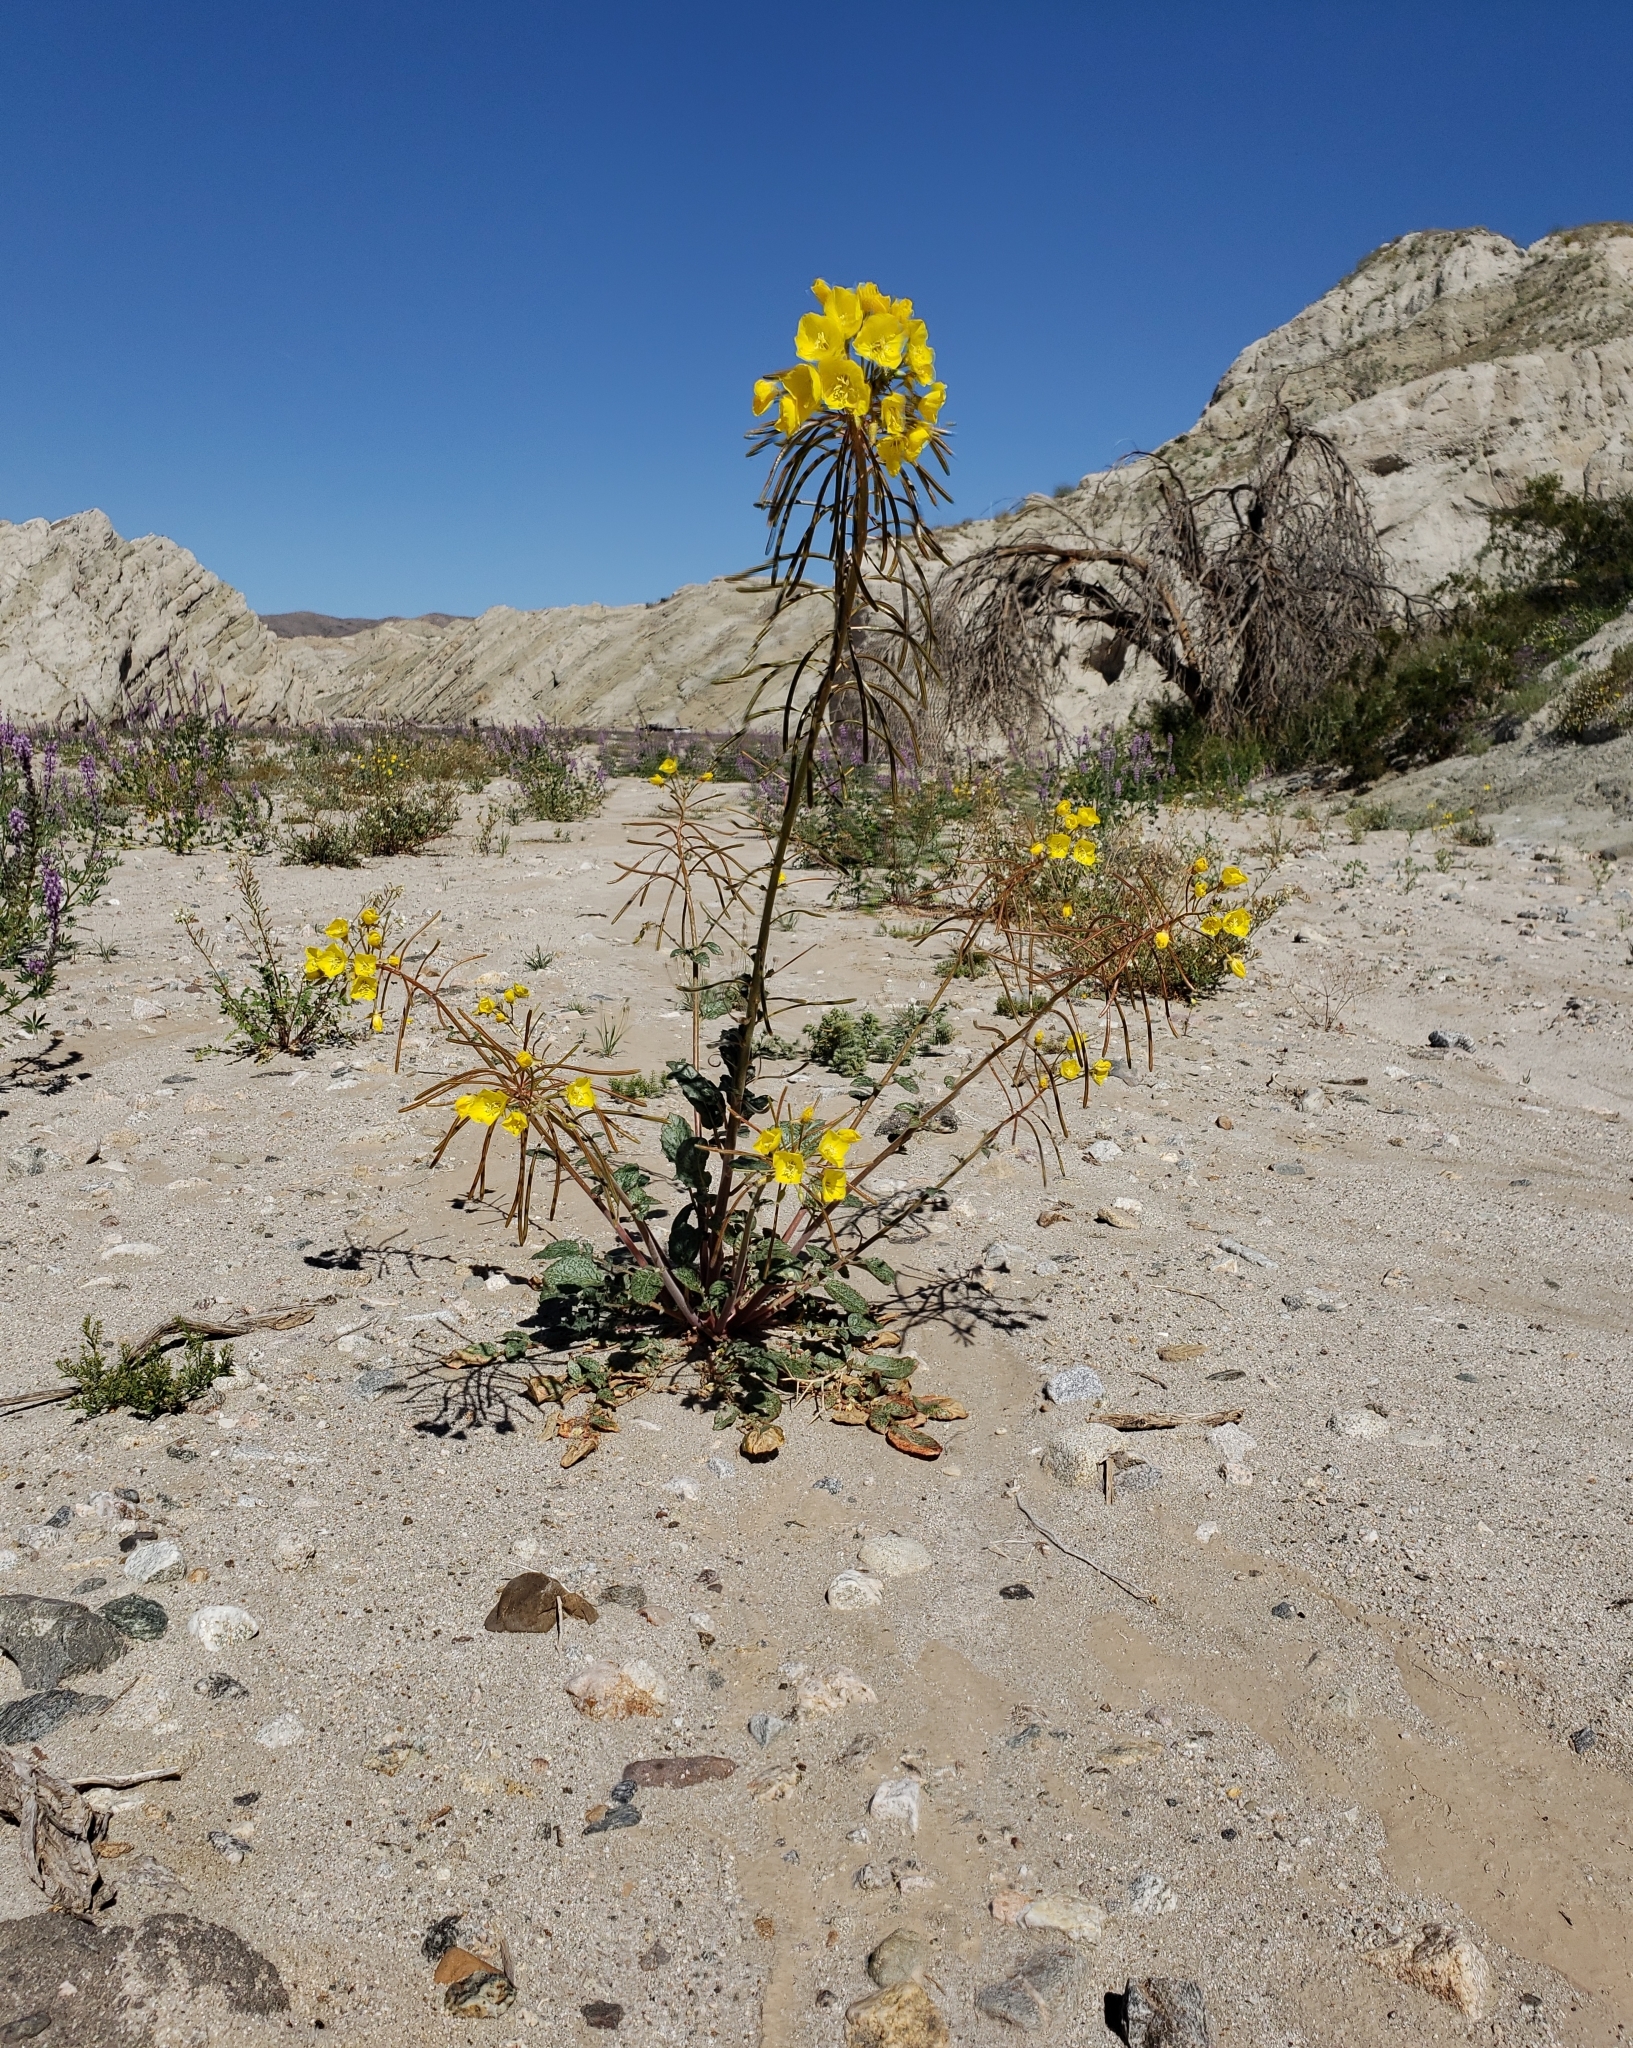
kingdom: Plantae
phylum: Tracheophyta
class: Magnoliopsida
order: Myrtales
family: Onagraceae
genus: Chylismia
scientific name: Chylismia brevipes
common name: Yellow cups
